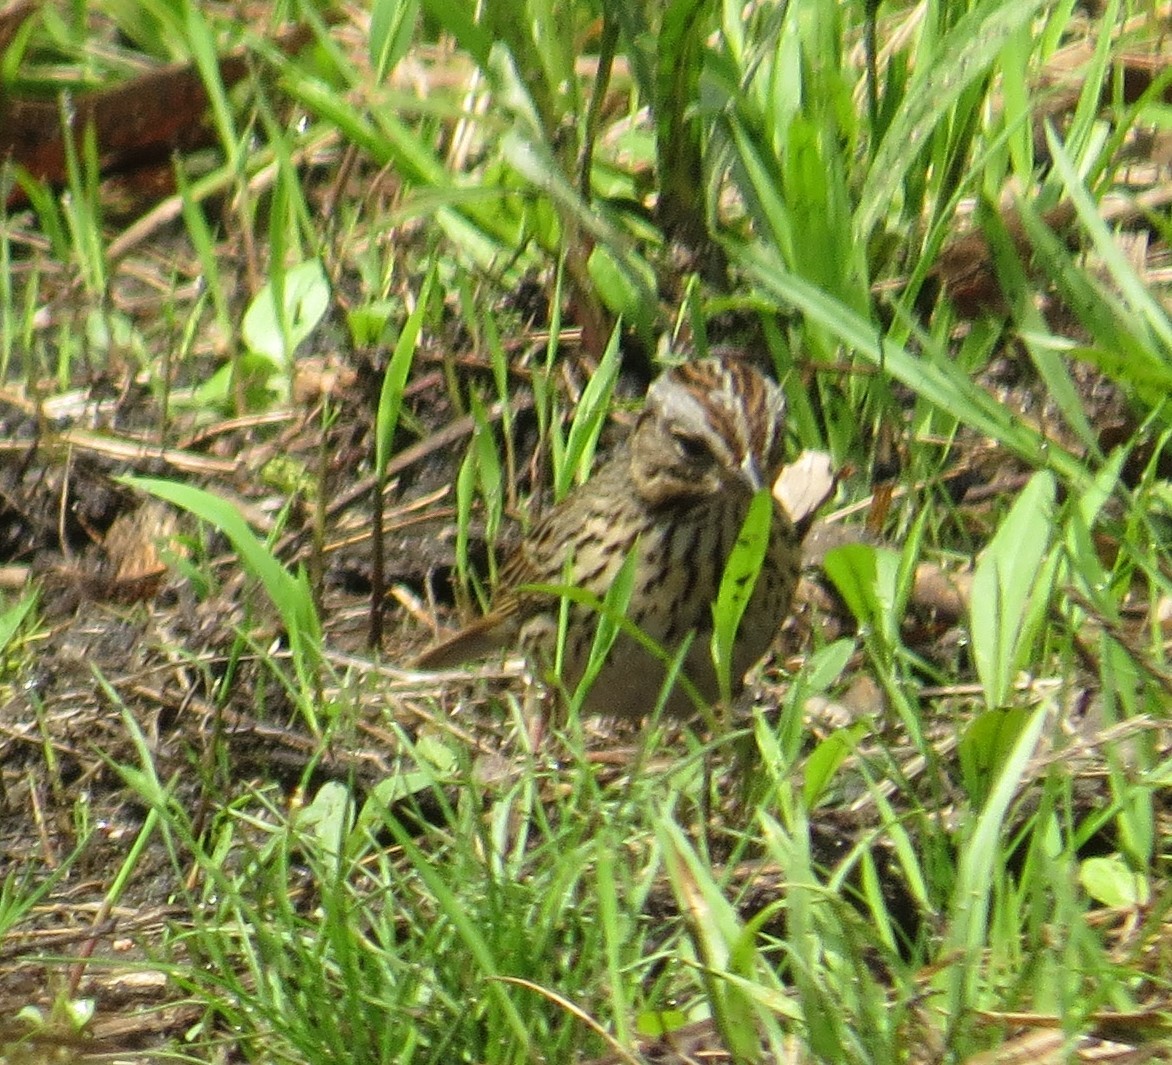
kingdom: Animalia
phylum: Chordata
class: Aves
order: Passeriformes
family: Passerellidae
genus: Melospiza
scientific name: Melospiza lincolnii
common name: Lincoln's sparrow
